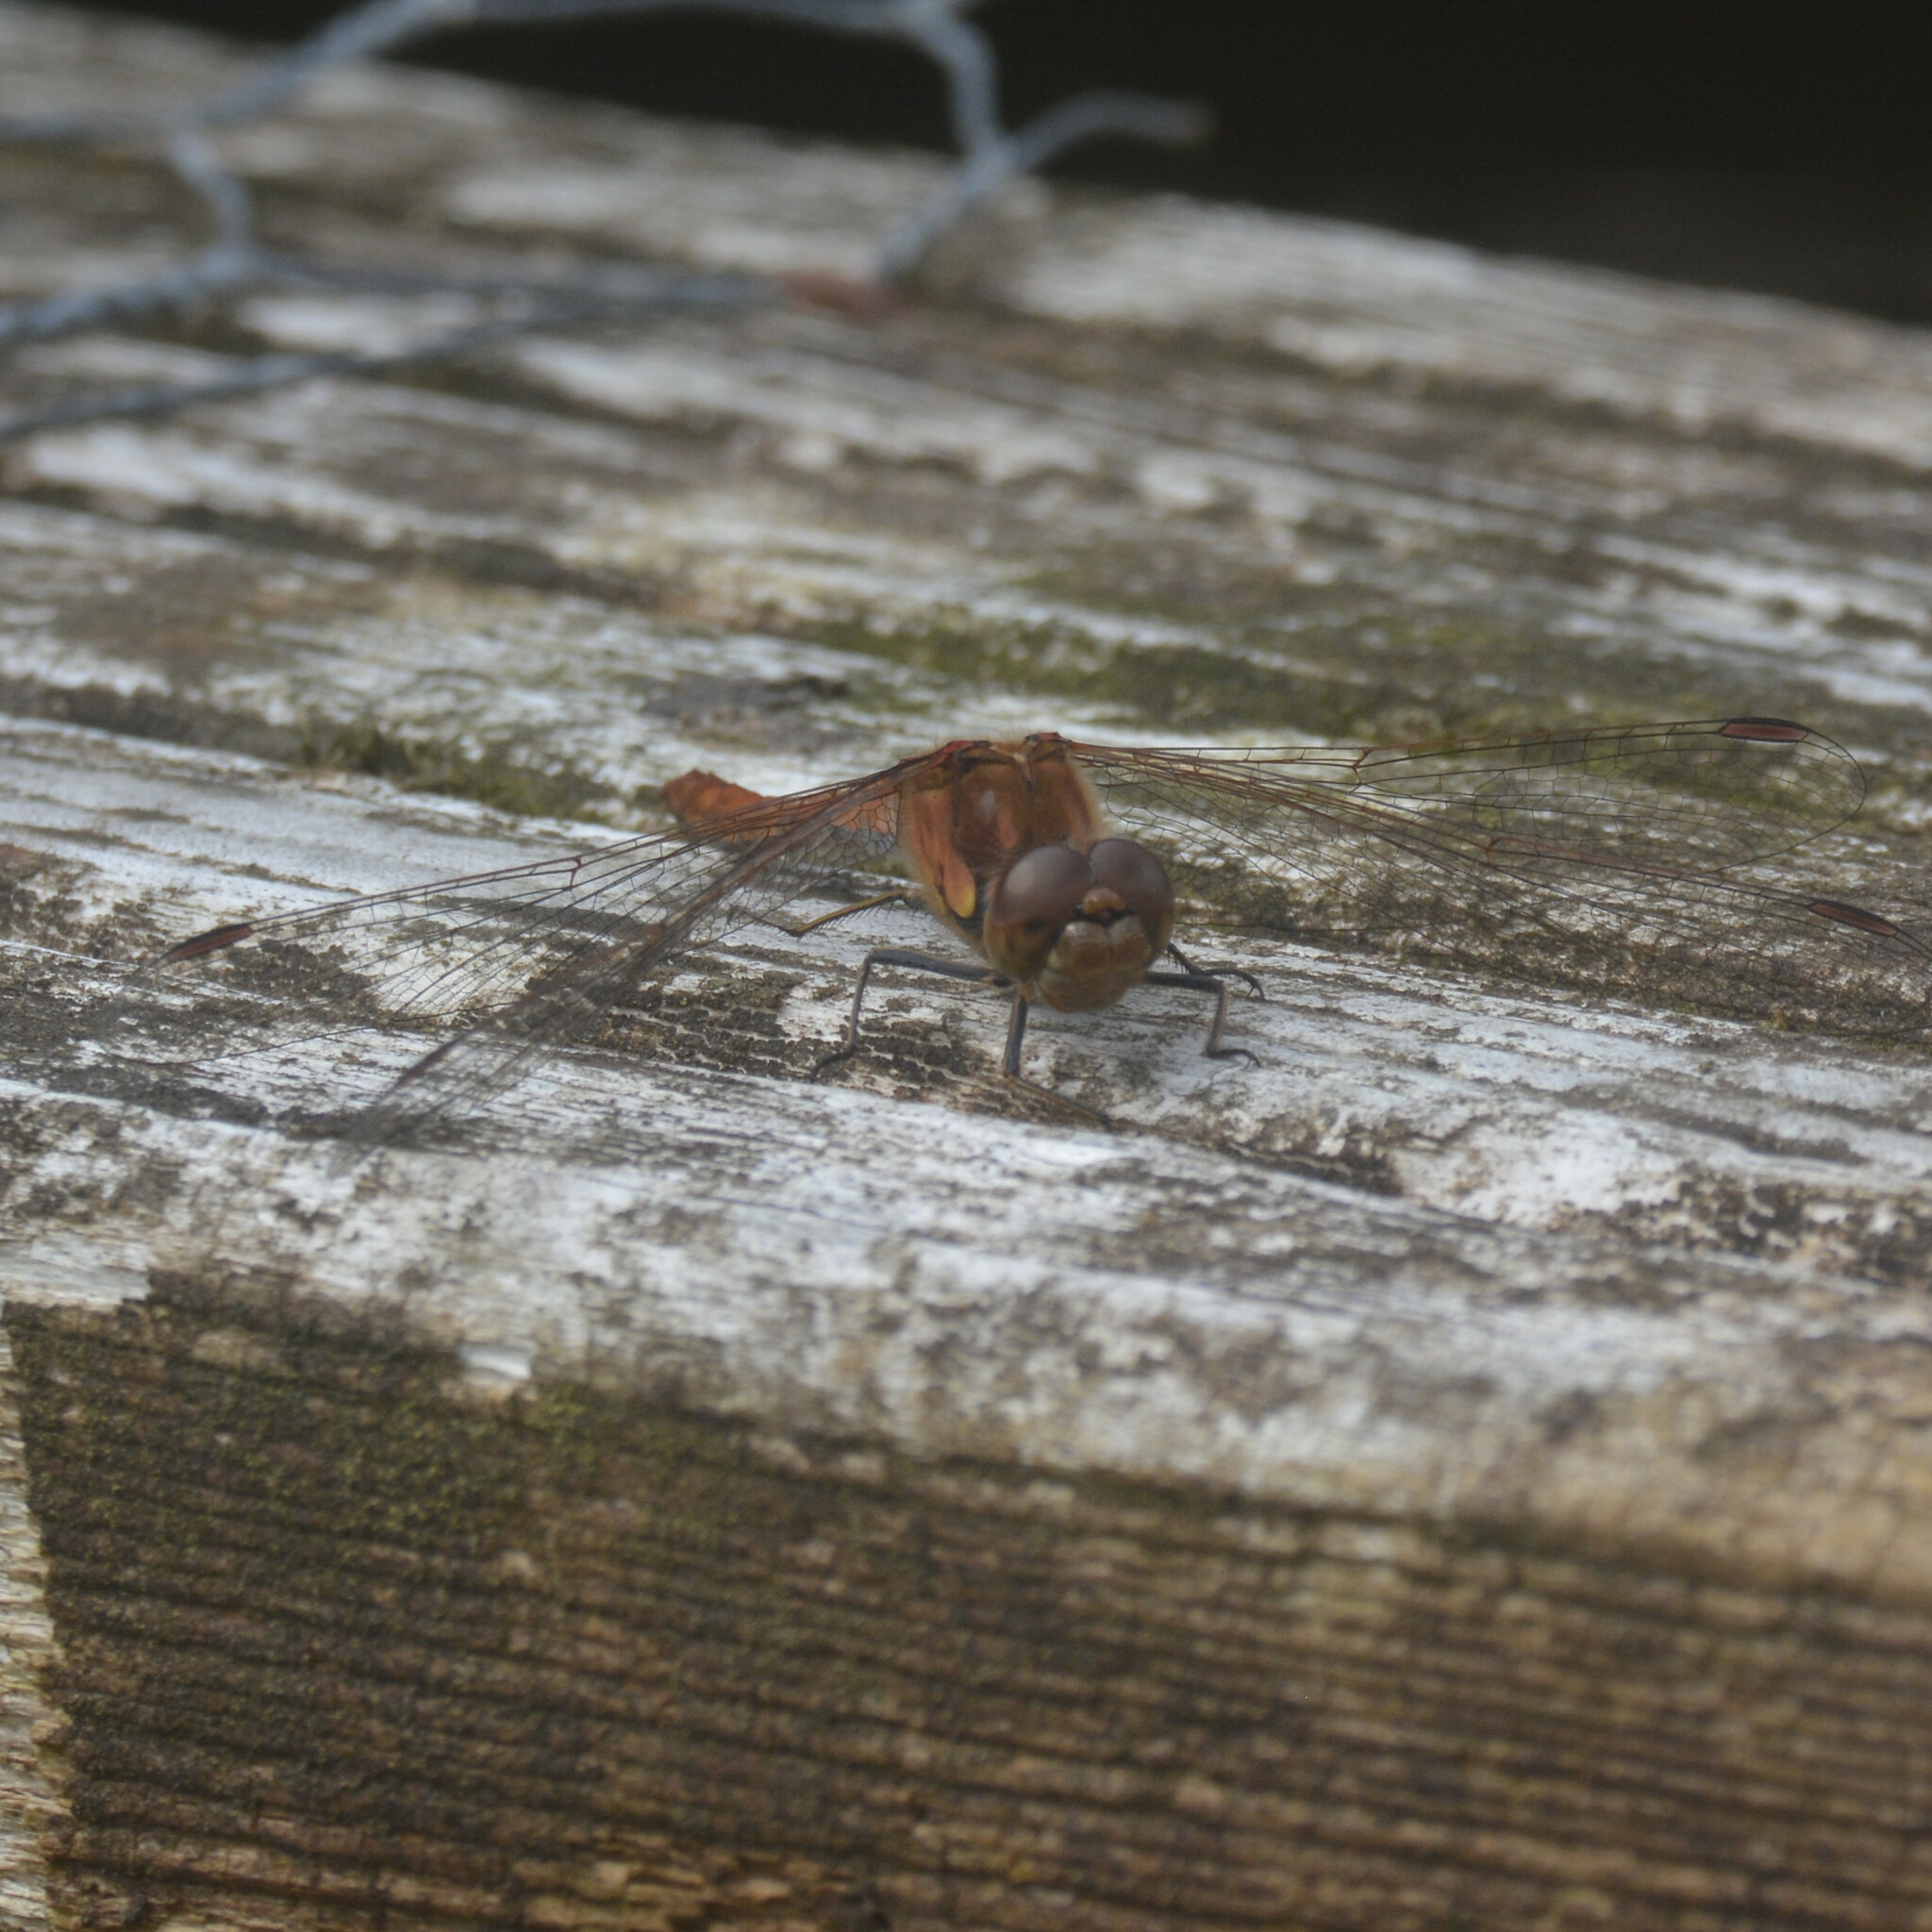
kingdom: Animalia
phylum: Arthropoda
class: Insecta
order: Odonata
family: Libellulidae
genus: Sympetrum
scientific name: Sympetrum striolatum
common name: Common darter
